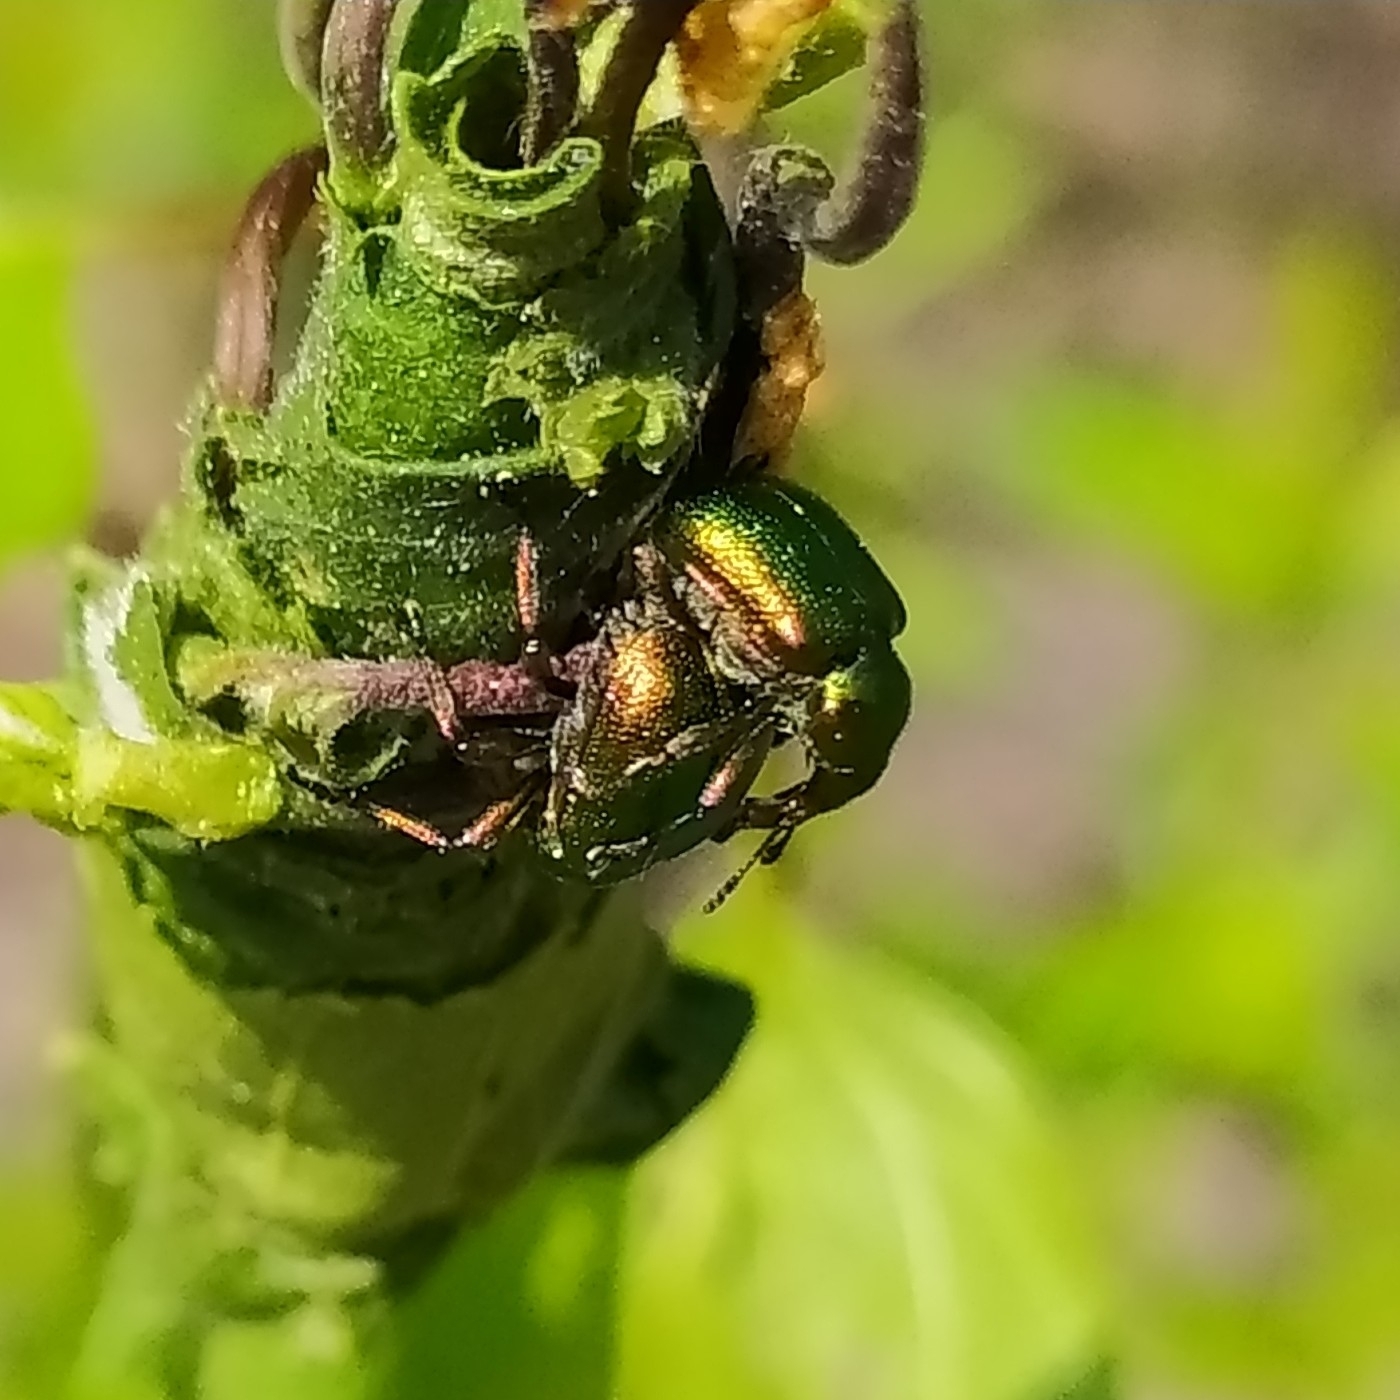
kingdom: Animalia
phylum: Arthropoda
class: Insecta
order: Coleoptera
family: Attelabidae
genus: Byctiscus
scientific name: Byctiscus betulae
